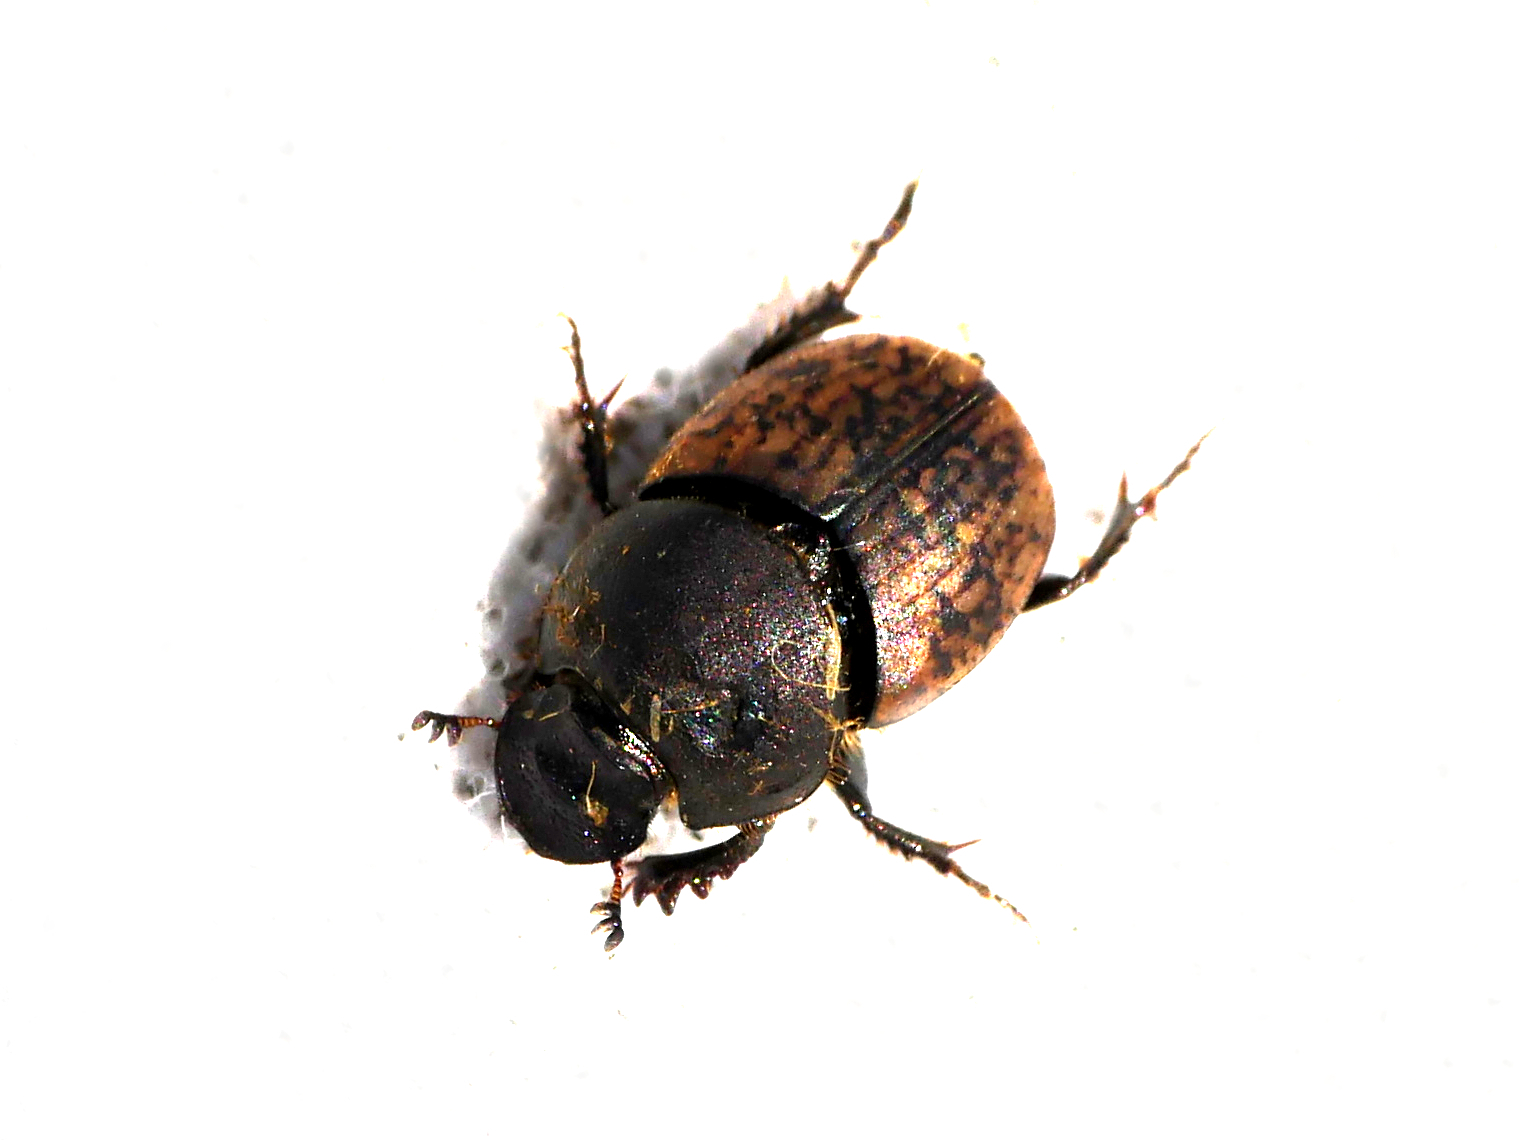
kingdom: Animalia
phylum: Arthropoda
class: Insecta
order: Coleoptera
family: Scarabaeidae
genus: Onthophagus
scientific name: Onthophagus similis
